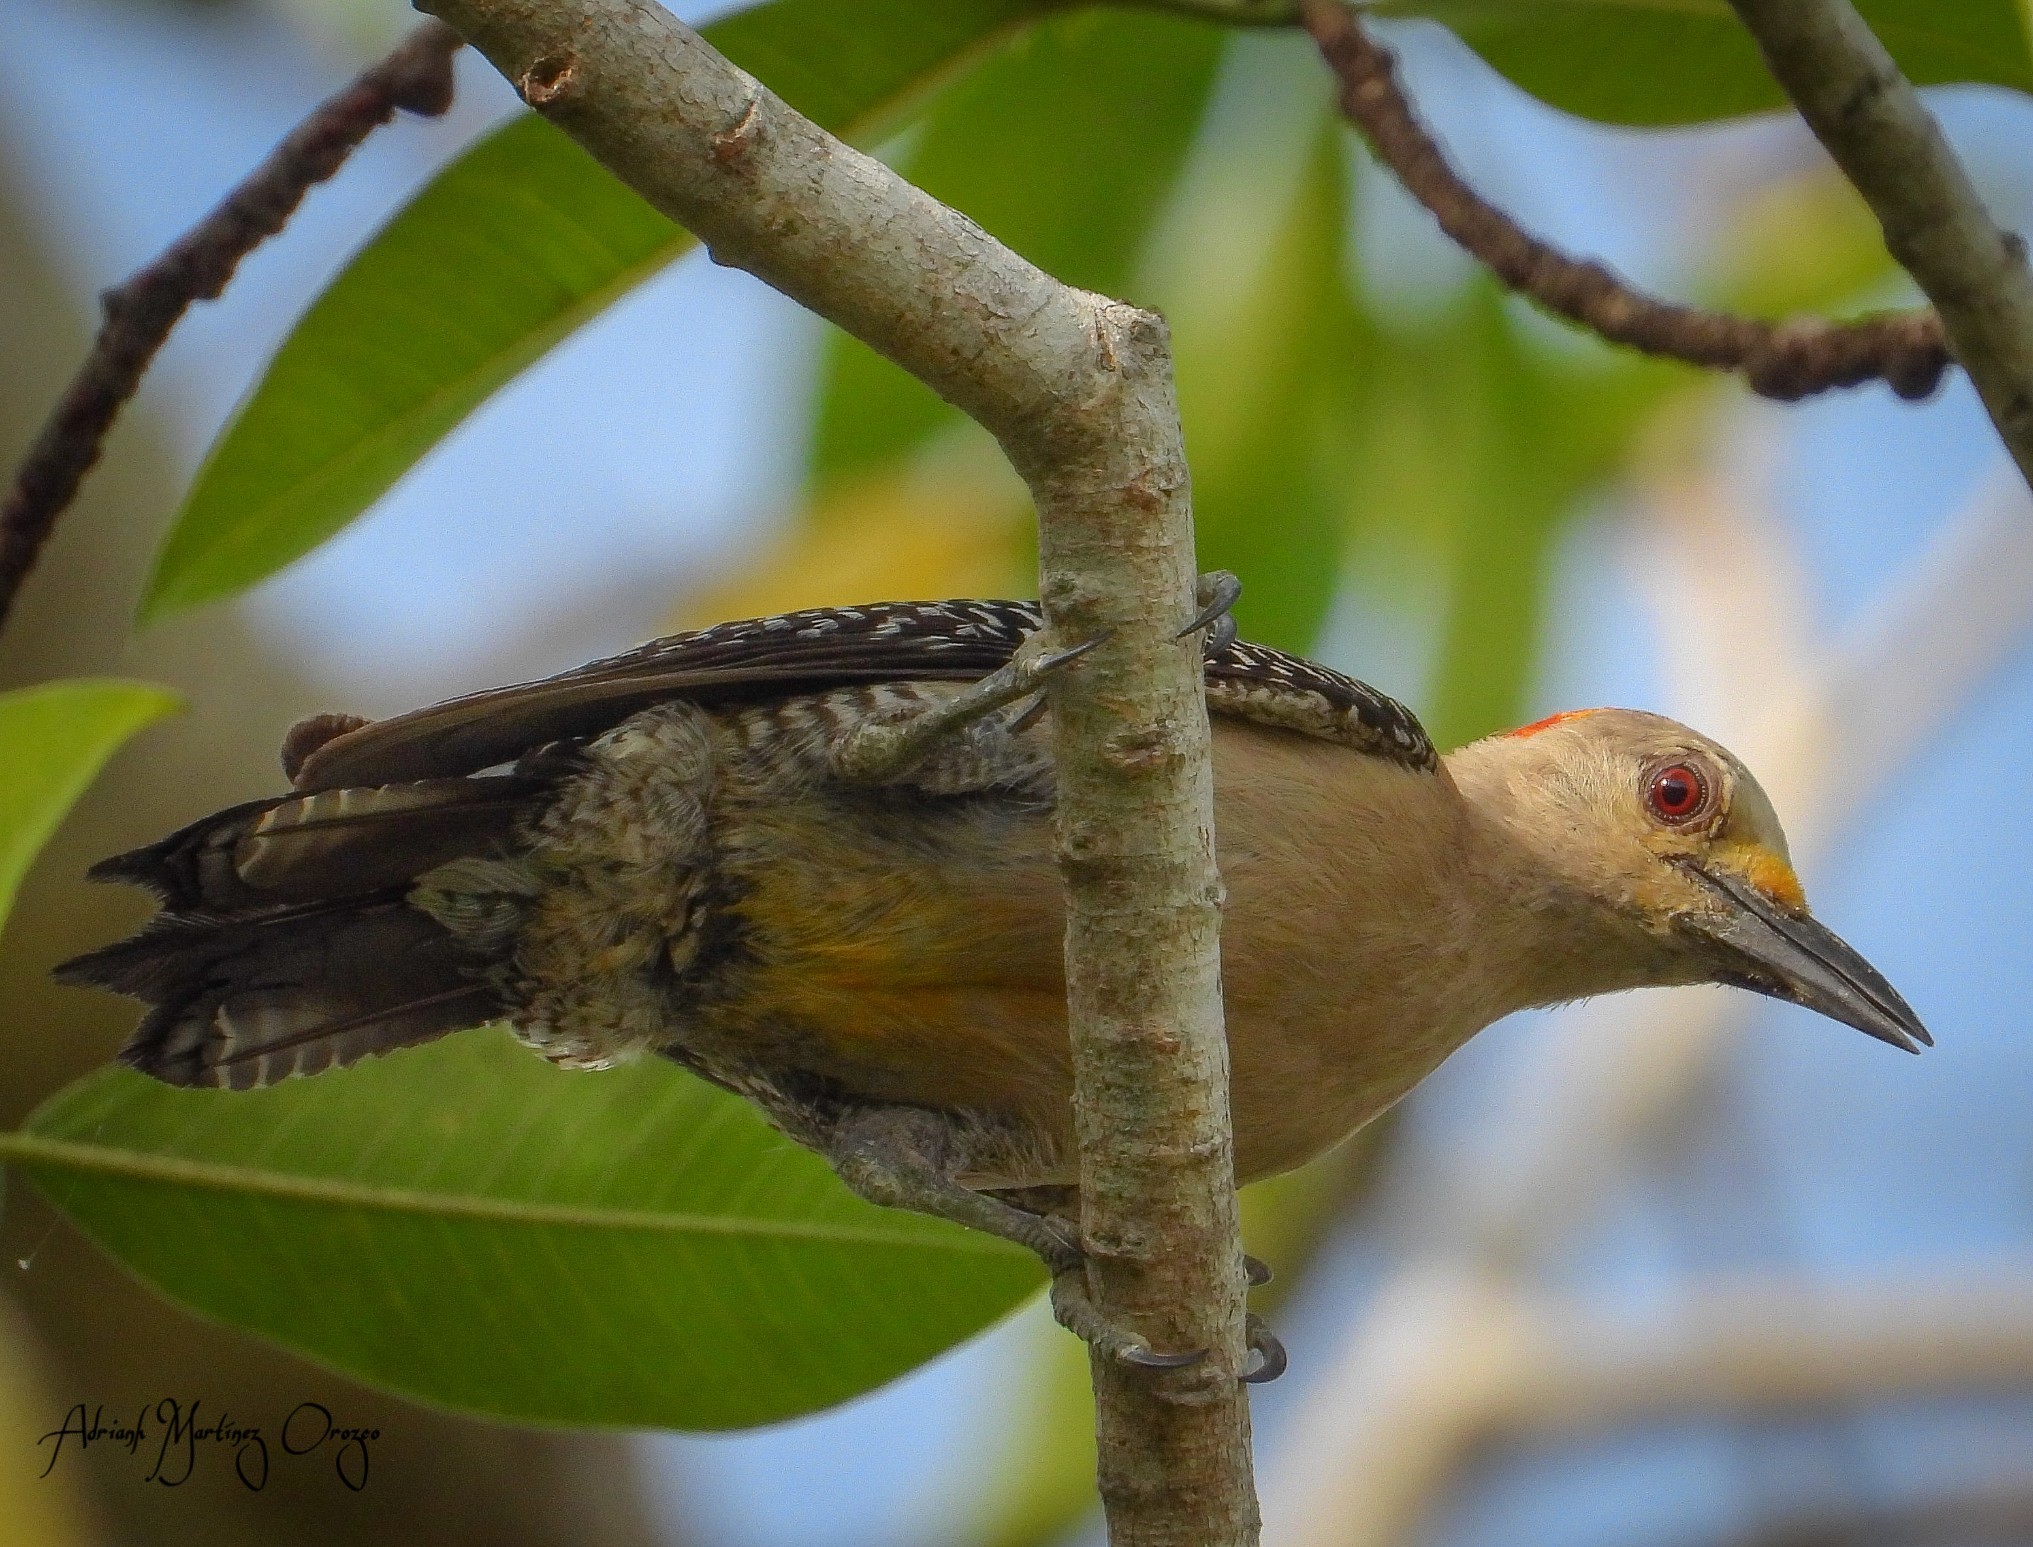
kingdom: Animalia
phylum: Chordata
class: Aves
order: Piciformes
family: Picidae
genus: Melanerpes
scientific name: Melanerpes aurifrons
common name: Golden-fronted woodpecker
